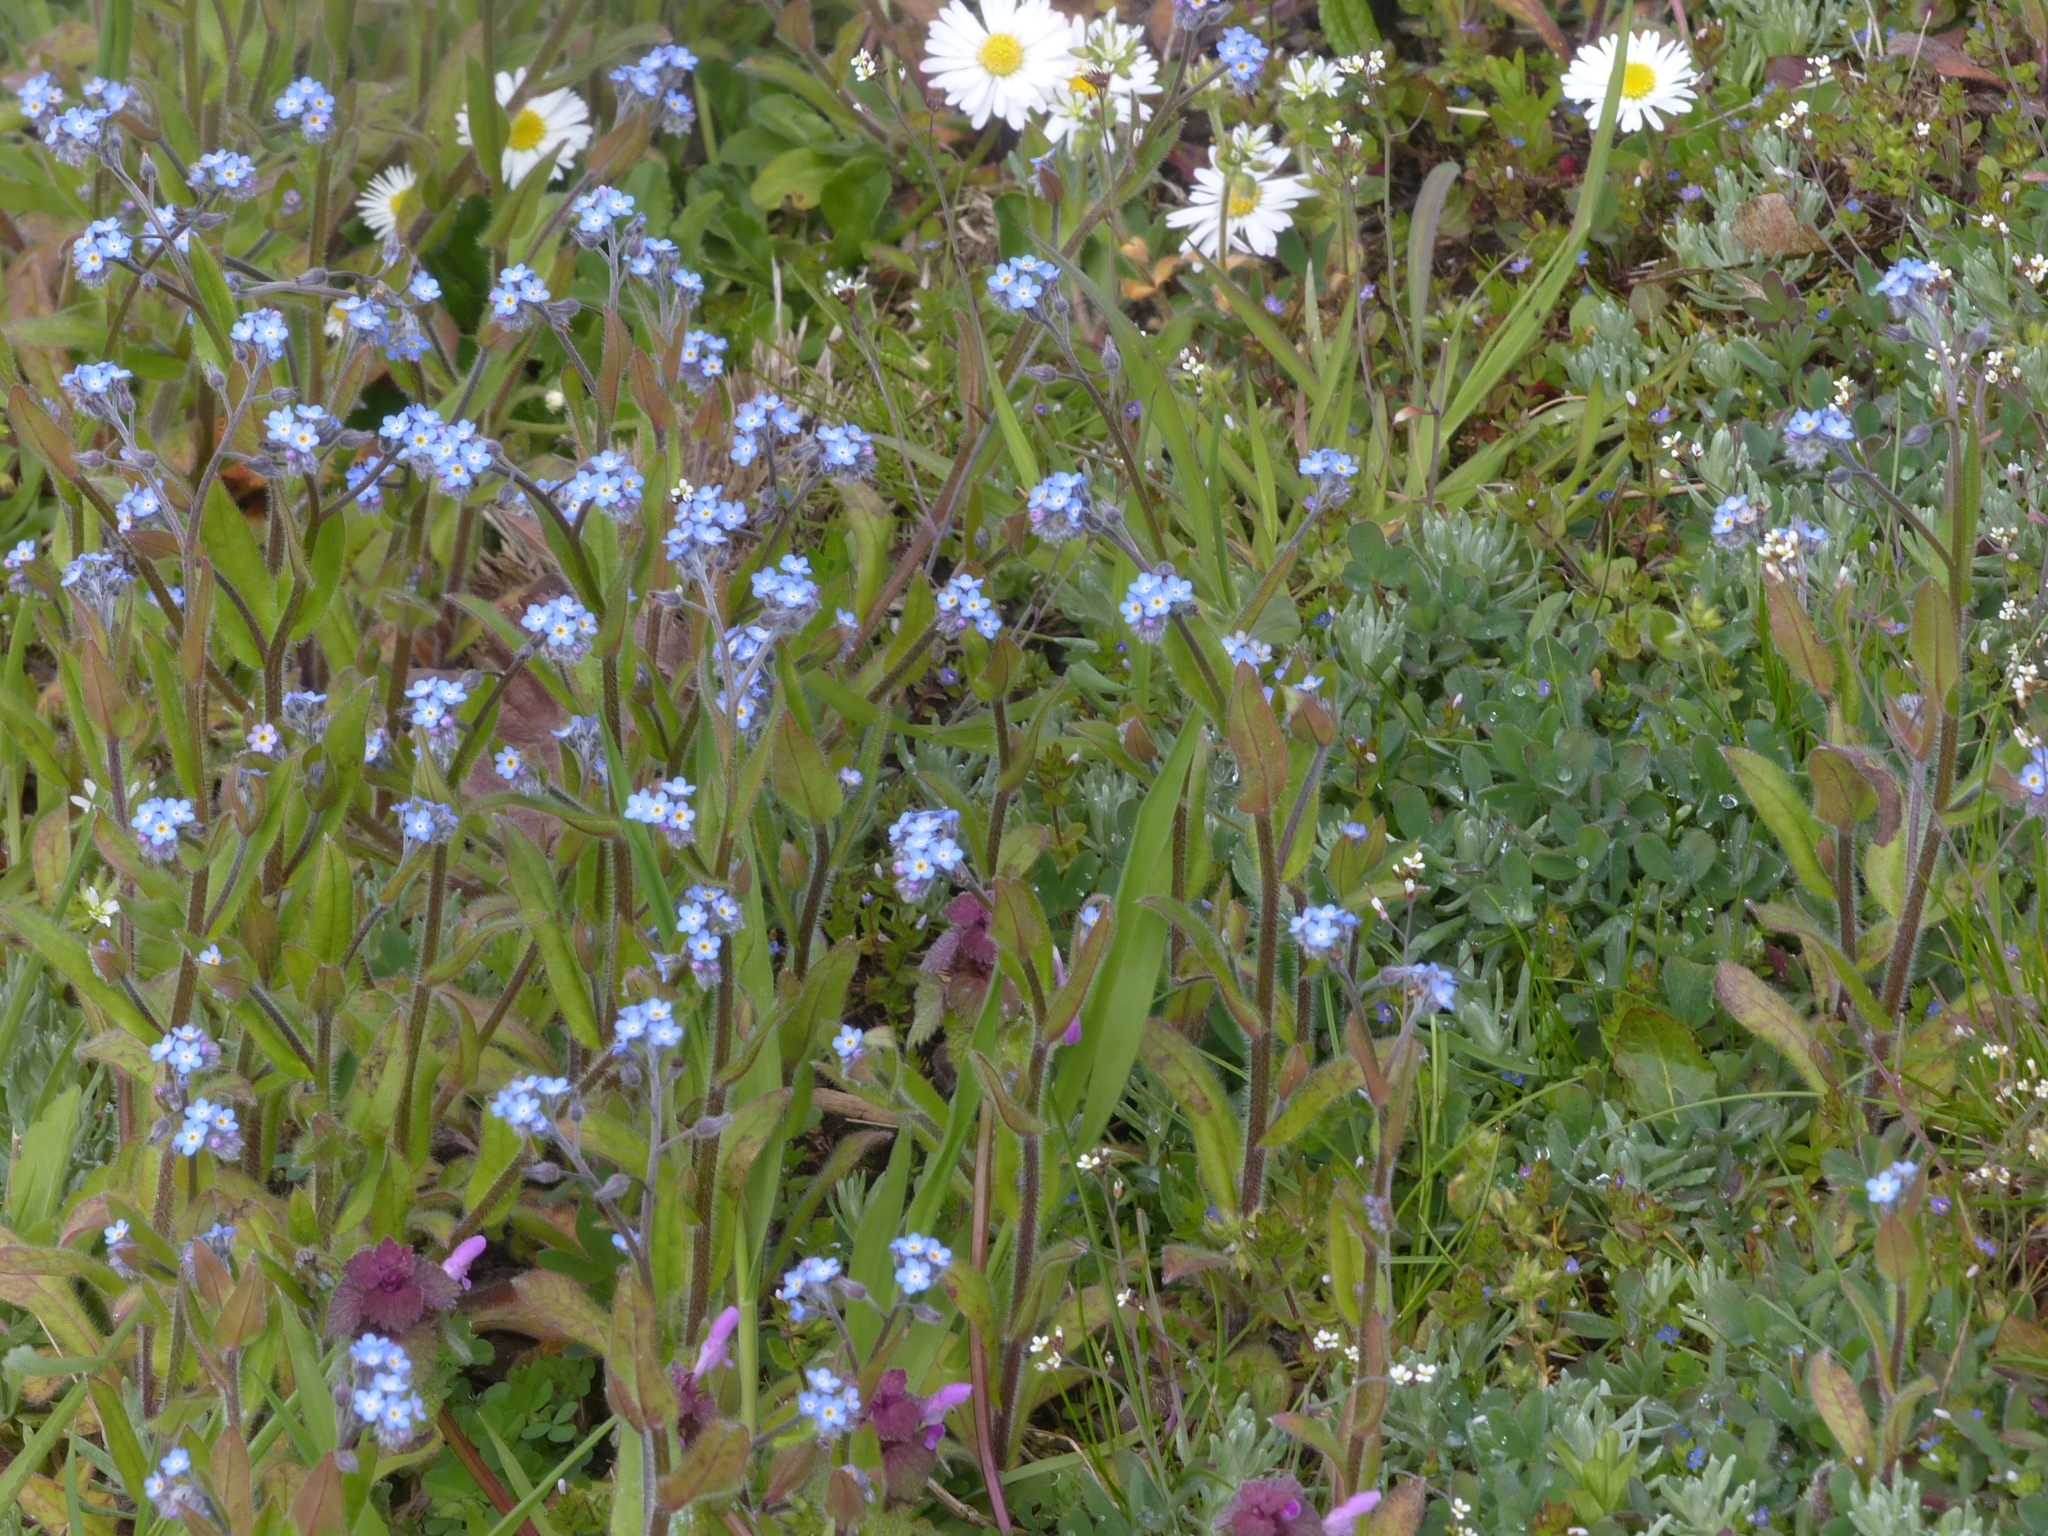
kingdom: Plantae
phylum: Tracheophyta
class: Magnoliopsida
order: Boraginales
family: Boraginaceae
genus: Myosotis
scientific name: Myosotis arvensis
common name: Field forget-me-not
